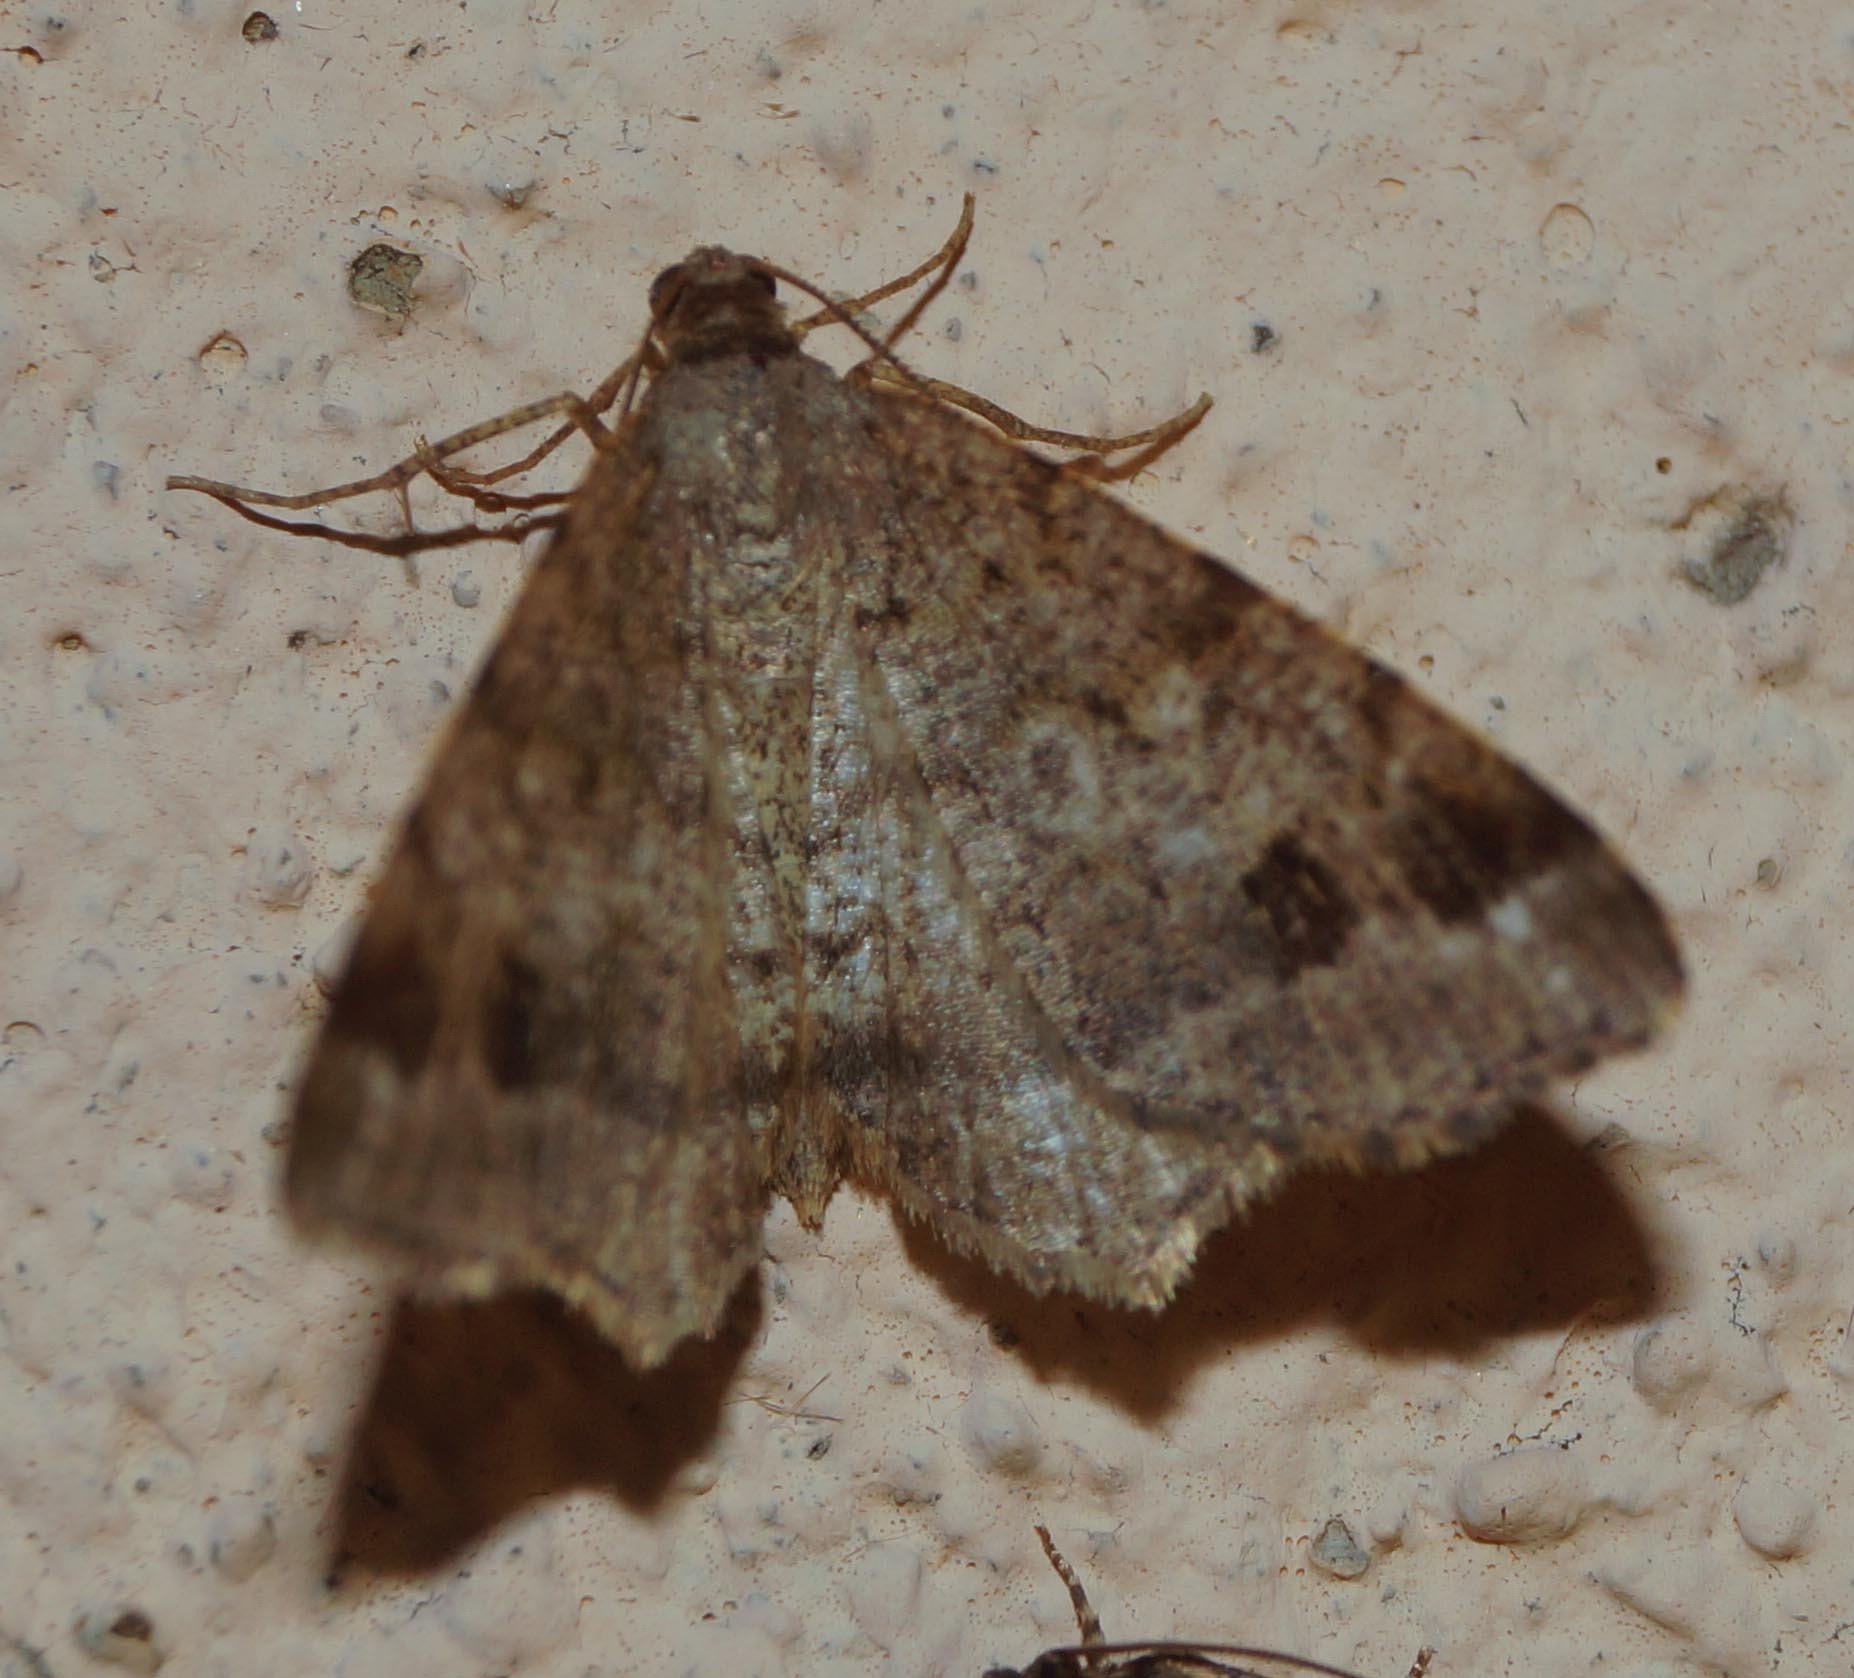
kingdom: Animalia
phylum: Arthropoda
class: Insecta
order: Lepidoptera
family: Geometridae
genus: Macaria
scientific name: Macaria signaria
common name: Dusky peacock
